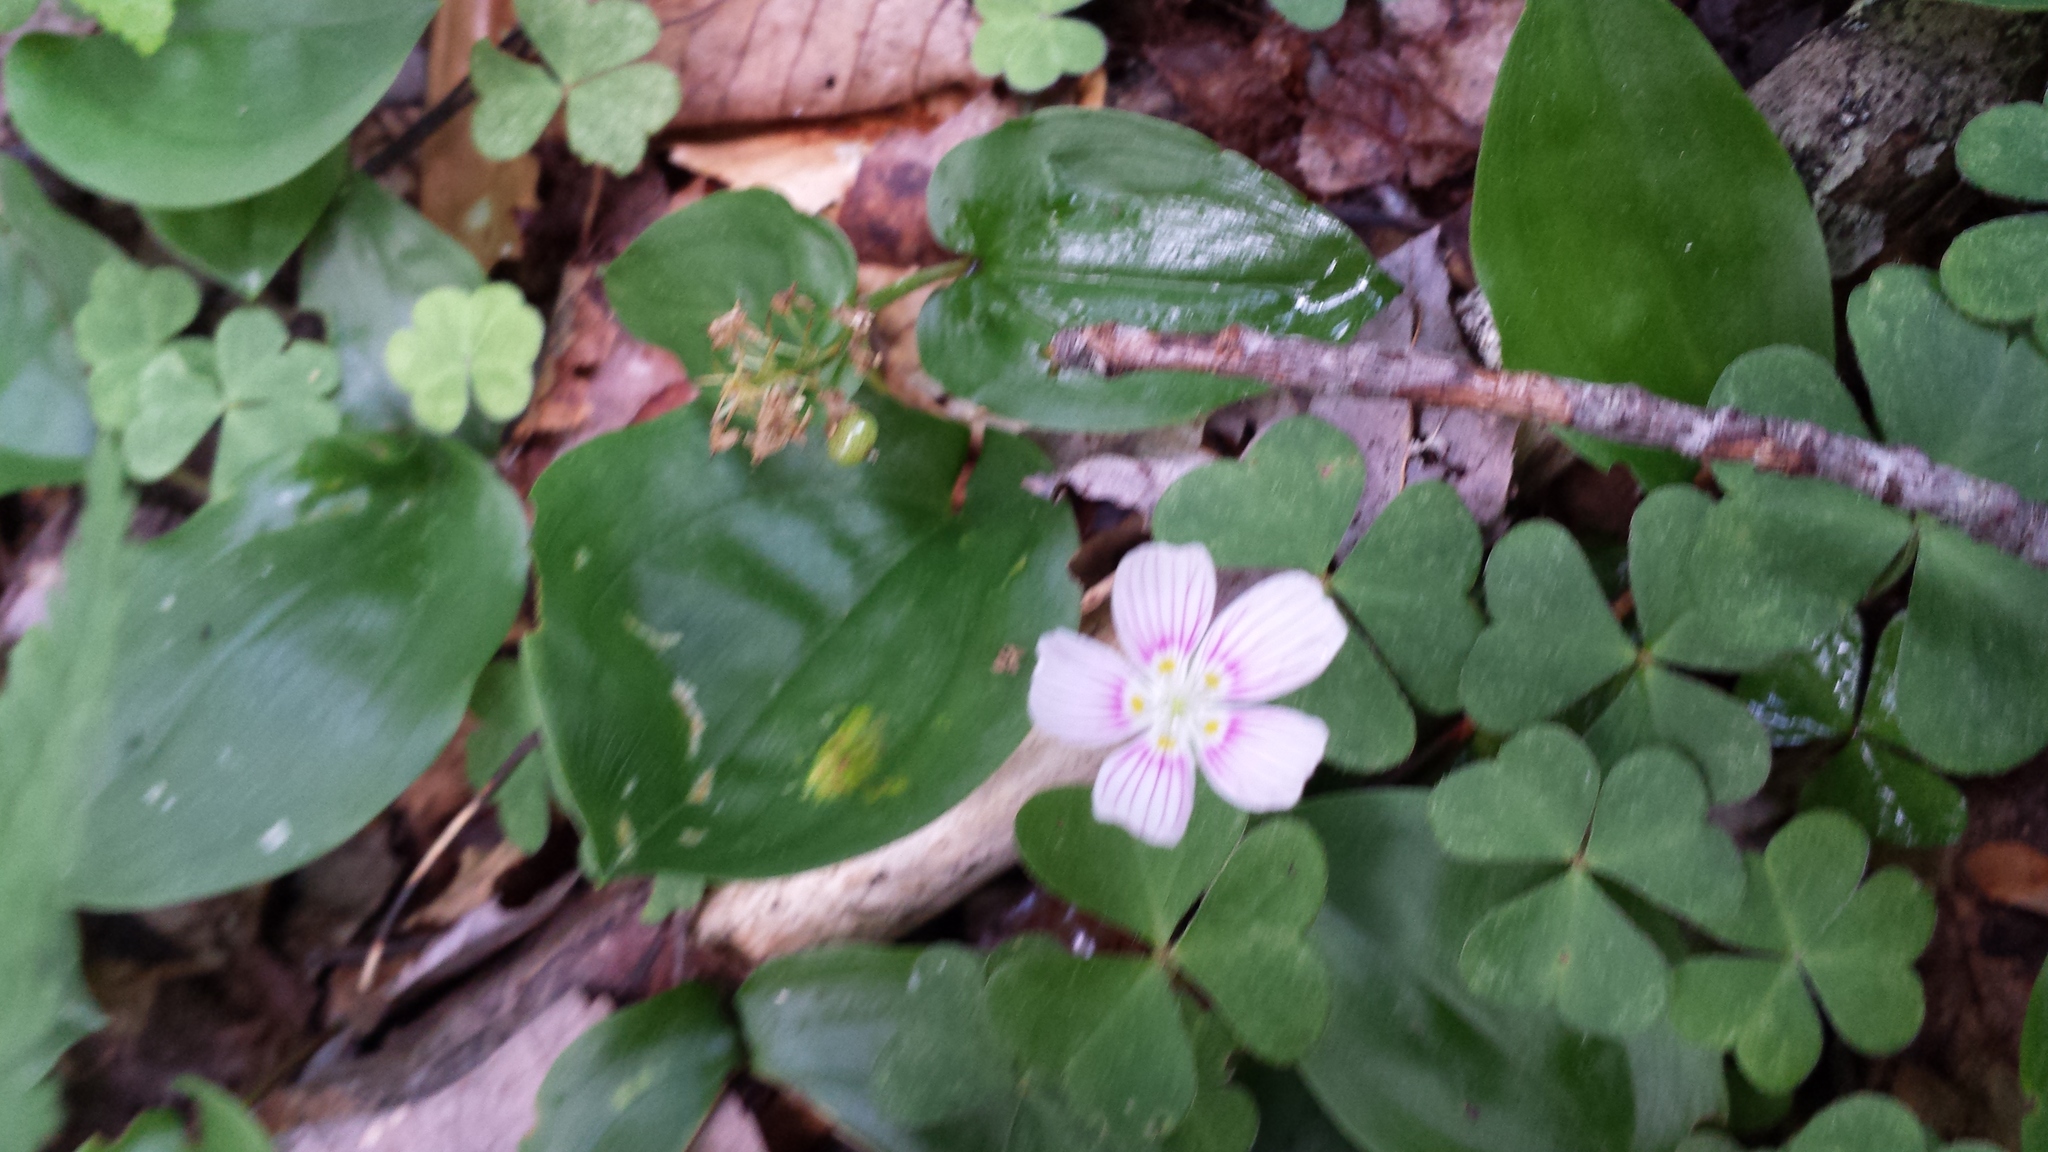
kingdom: Plantae
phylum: Tracheophyta
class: Magnoliopsida
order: Oxalidales
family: Oxalidaceae
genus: Oxalis
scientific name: Oxalis montana
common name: American wood-sorrel
